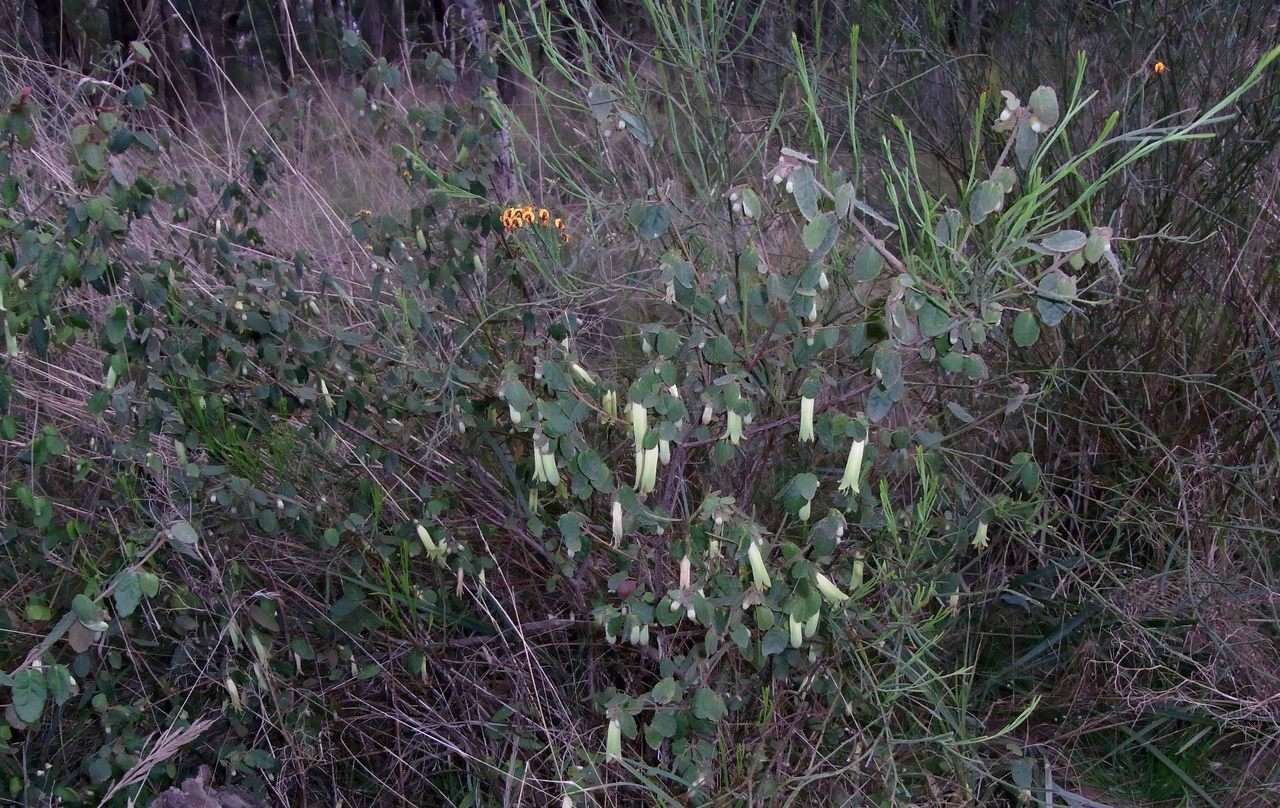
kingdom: Plantae
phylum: Tracheophyta
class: Magnoliopsida
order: Sapindales
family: Rutaceae
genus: Correa
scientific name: Correa reflexa
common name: Common correa
